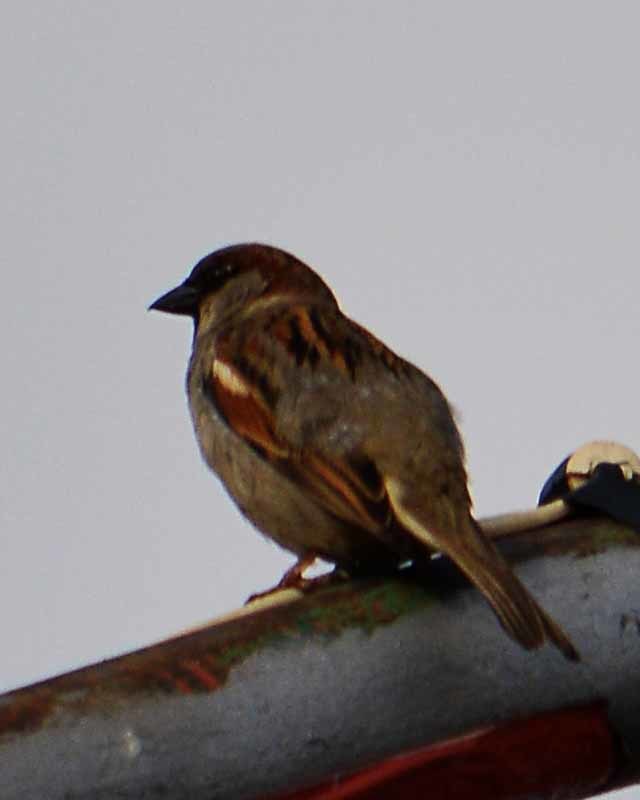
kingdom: Animalia
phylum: Chordata
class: Aves
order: Passeriformes
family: Passeridae
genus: Passer
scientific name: Passer domesticus
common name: House sparrow
